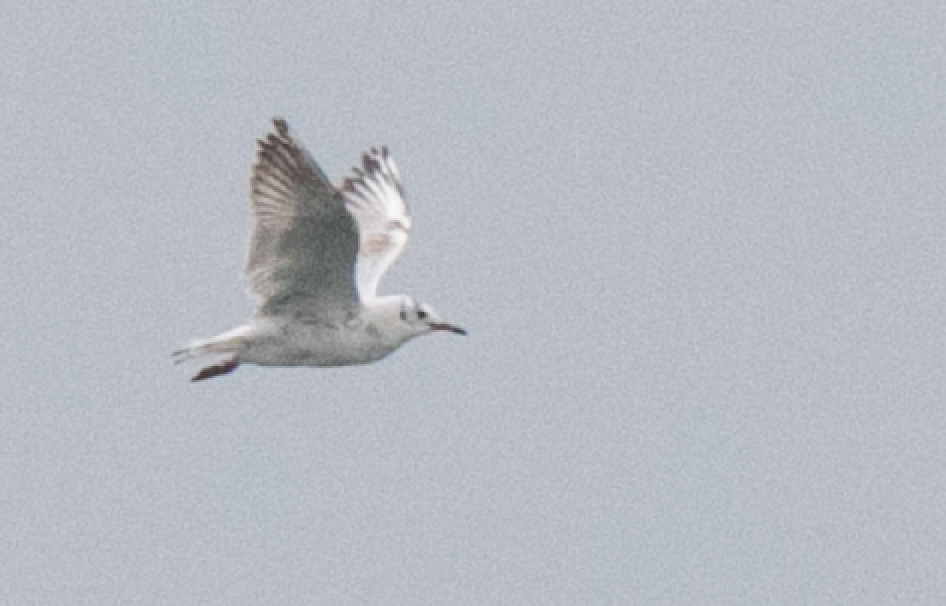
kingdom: Animalia
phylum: Chordata
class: Aves
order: Charadriiformes
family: Laridae
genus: Chroicocephalus
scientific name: Chroicocephalus ridibundus
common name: Black-headed gull
